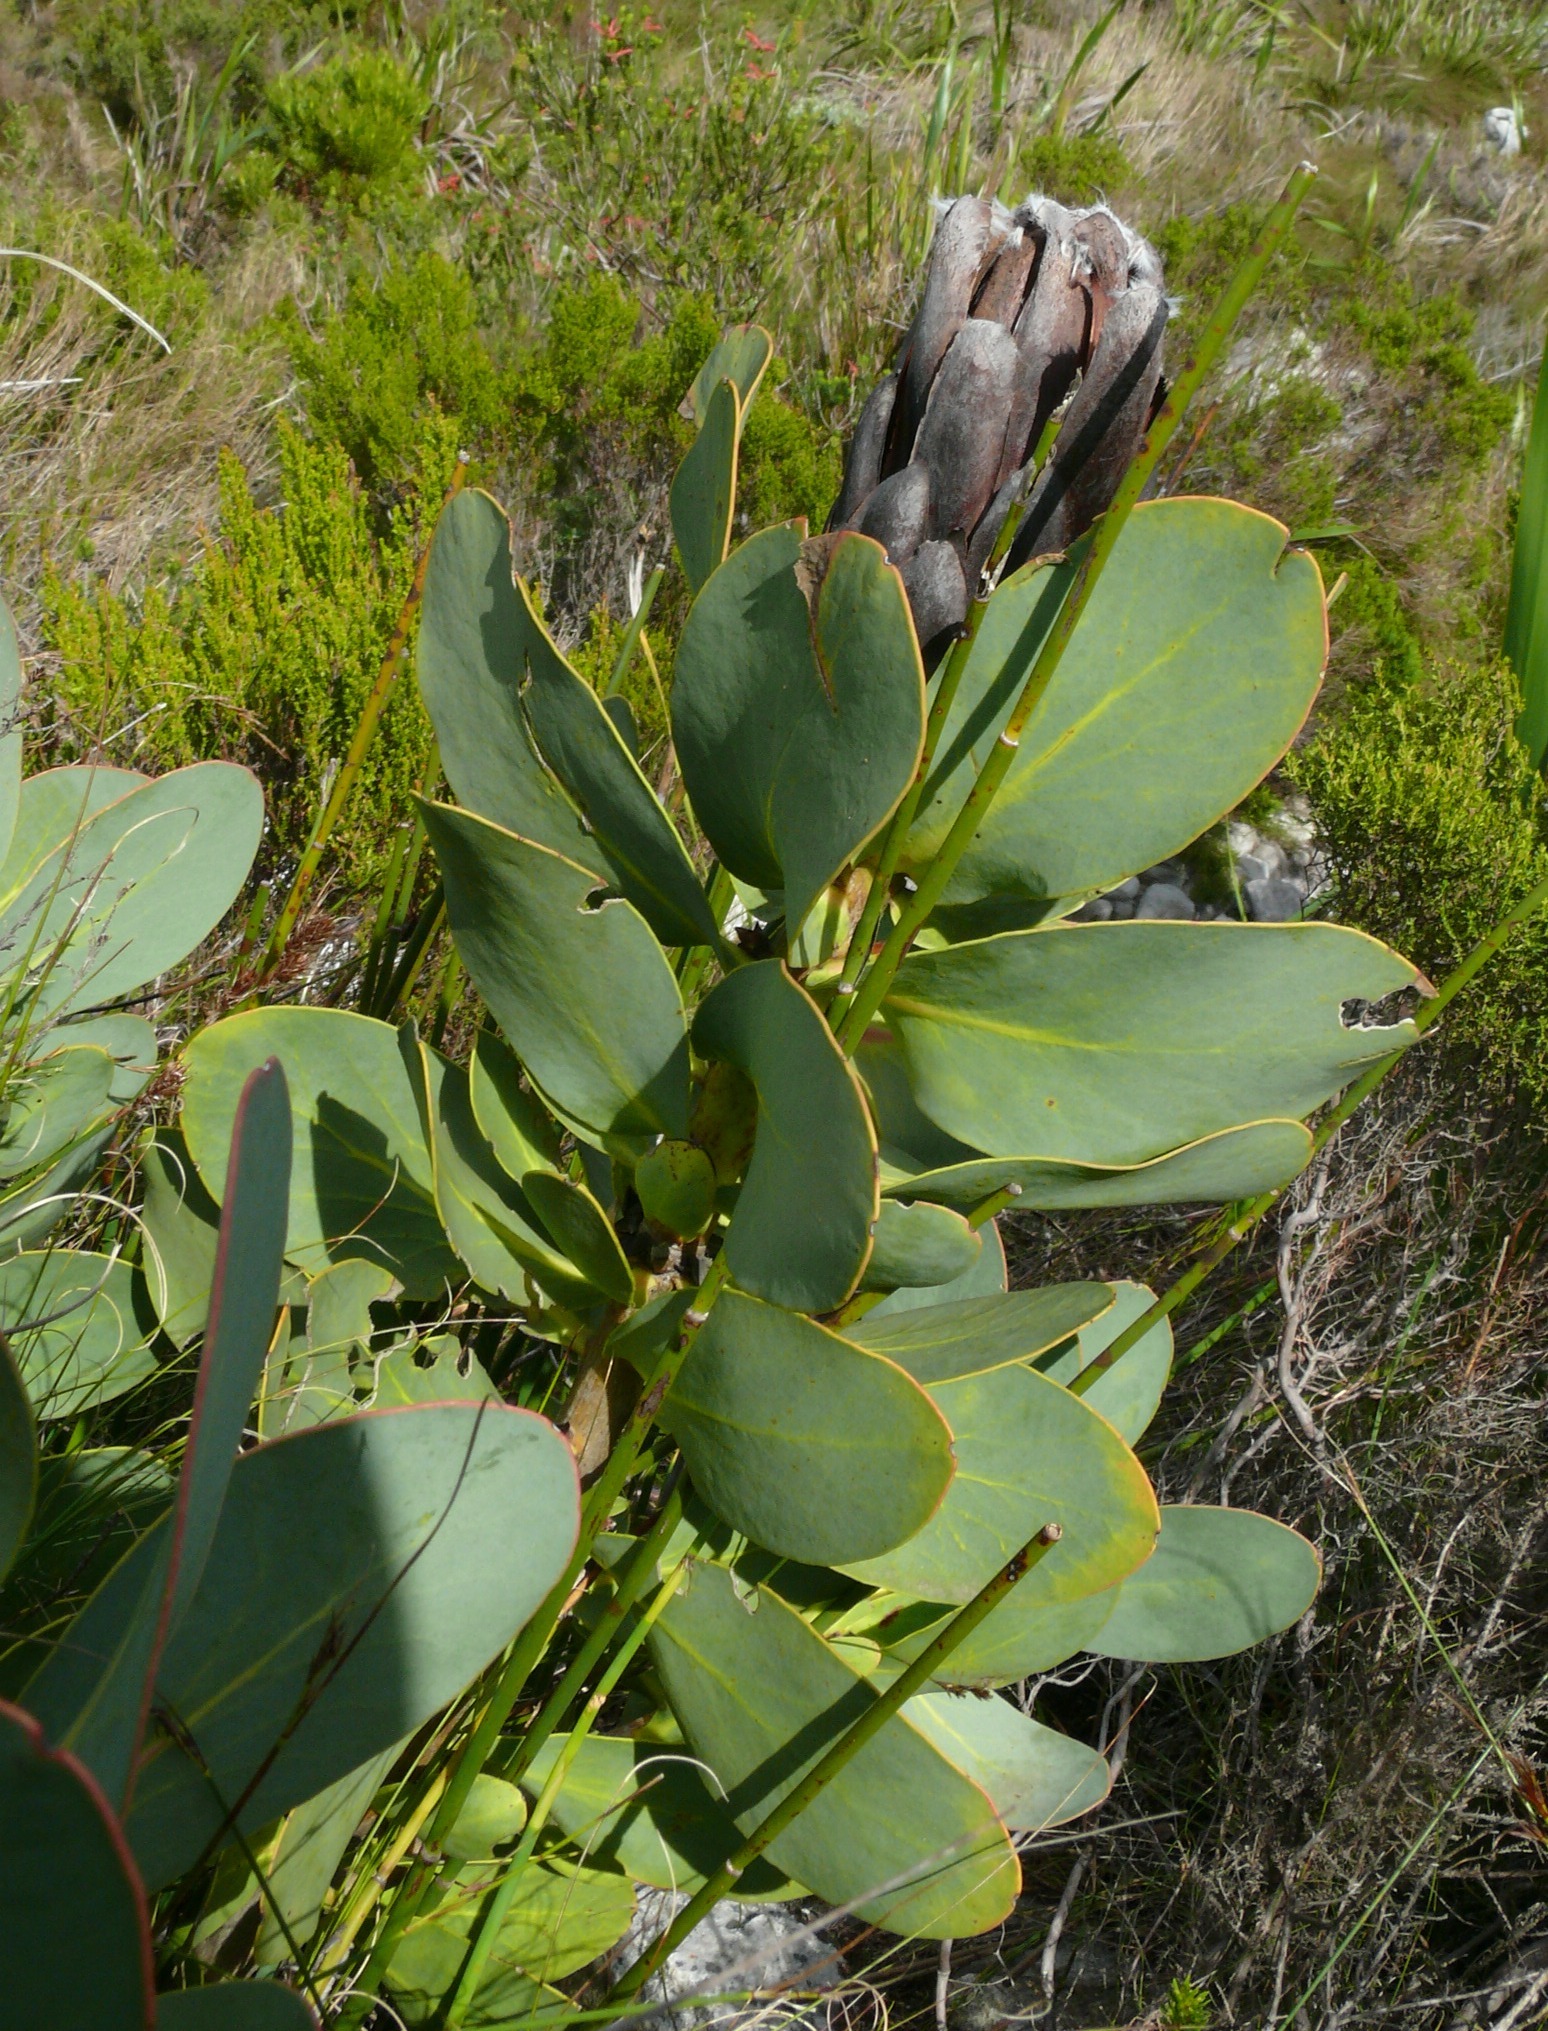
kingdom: Plantae
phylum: Tracheophyta
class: Magnoliopsida
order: Proteales
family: Proteaceae
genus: Protea
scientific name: Protea grandiceps
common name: Red sugarbush
